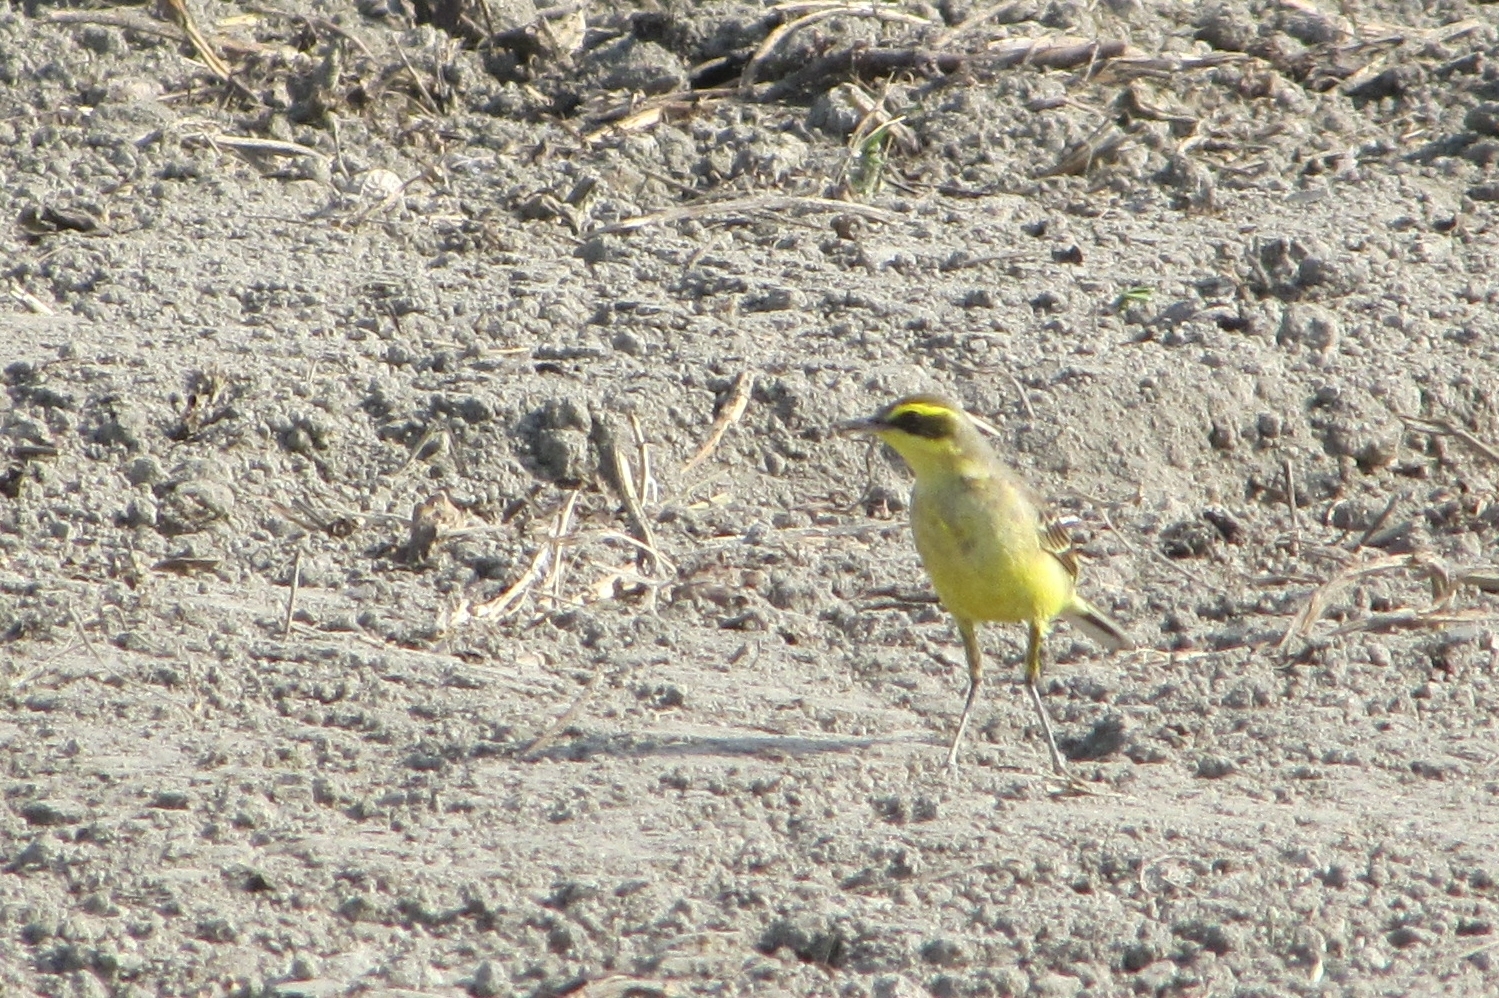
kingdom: Animalia
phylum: Chordata
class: Aves
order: Passeriformes
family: Motacillidae
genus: Motacilla
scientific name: Motacilla tschutschensis
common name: Eastern yellow wagtail
